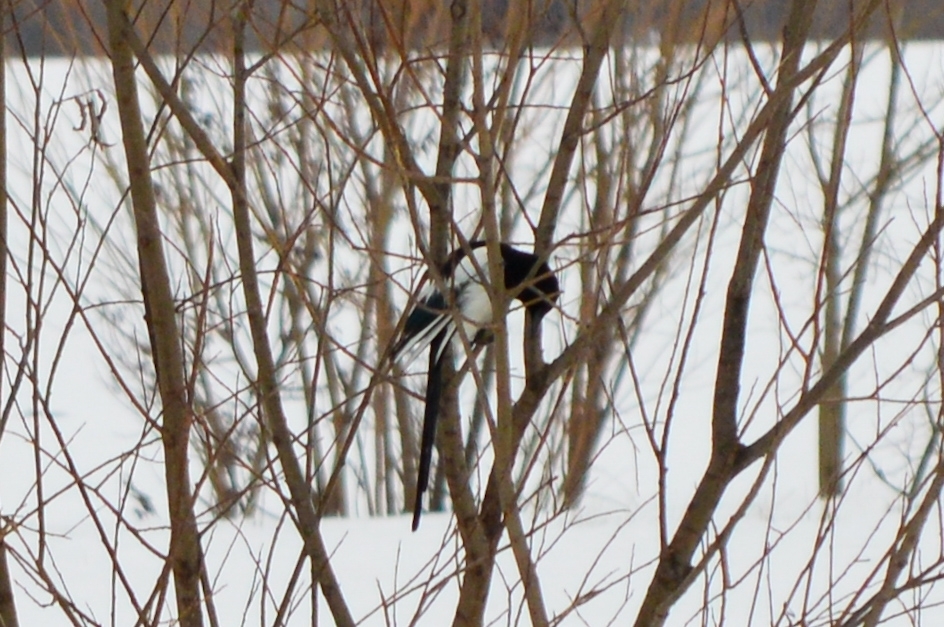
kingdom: Animalia
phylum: Chordata
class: Aves
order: Passeriformes
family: Corvidae
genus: Pica
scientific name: Pica pica
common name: Eurasian magpie
